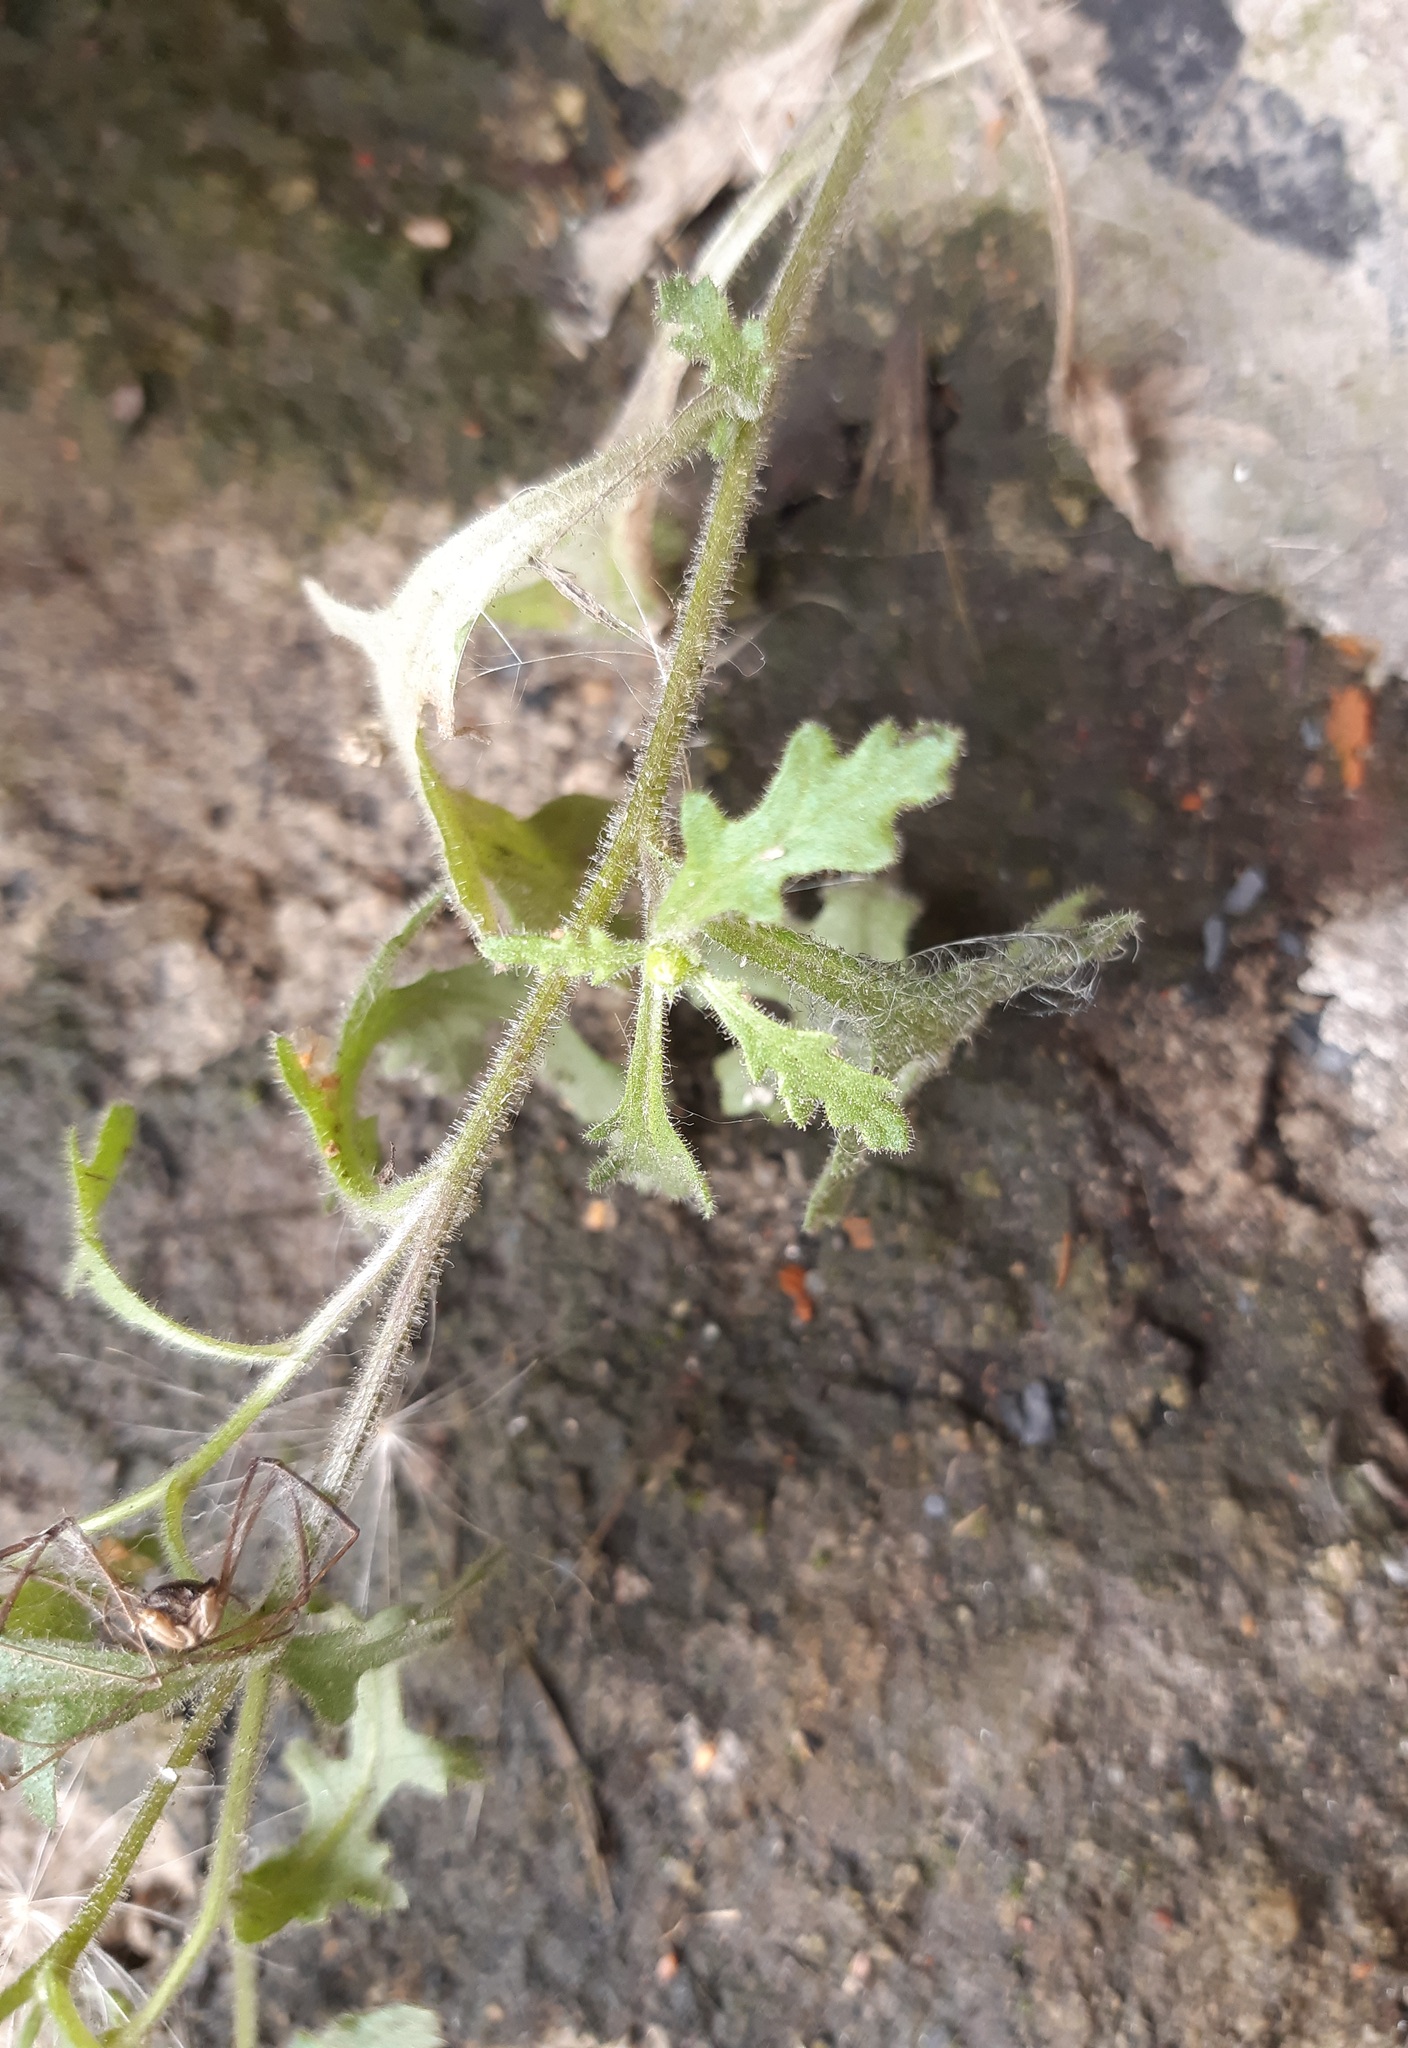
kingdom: Plantae
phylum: Tracheophyta
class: Magnoliopsida
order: Asterales
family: Asteraceae
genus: Senecio
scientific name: Senecio viscosus
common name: Sticky groundsel
